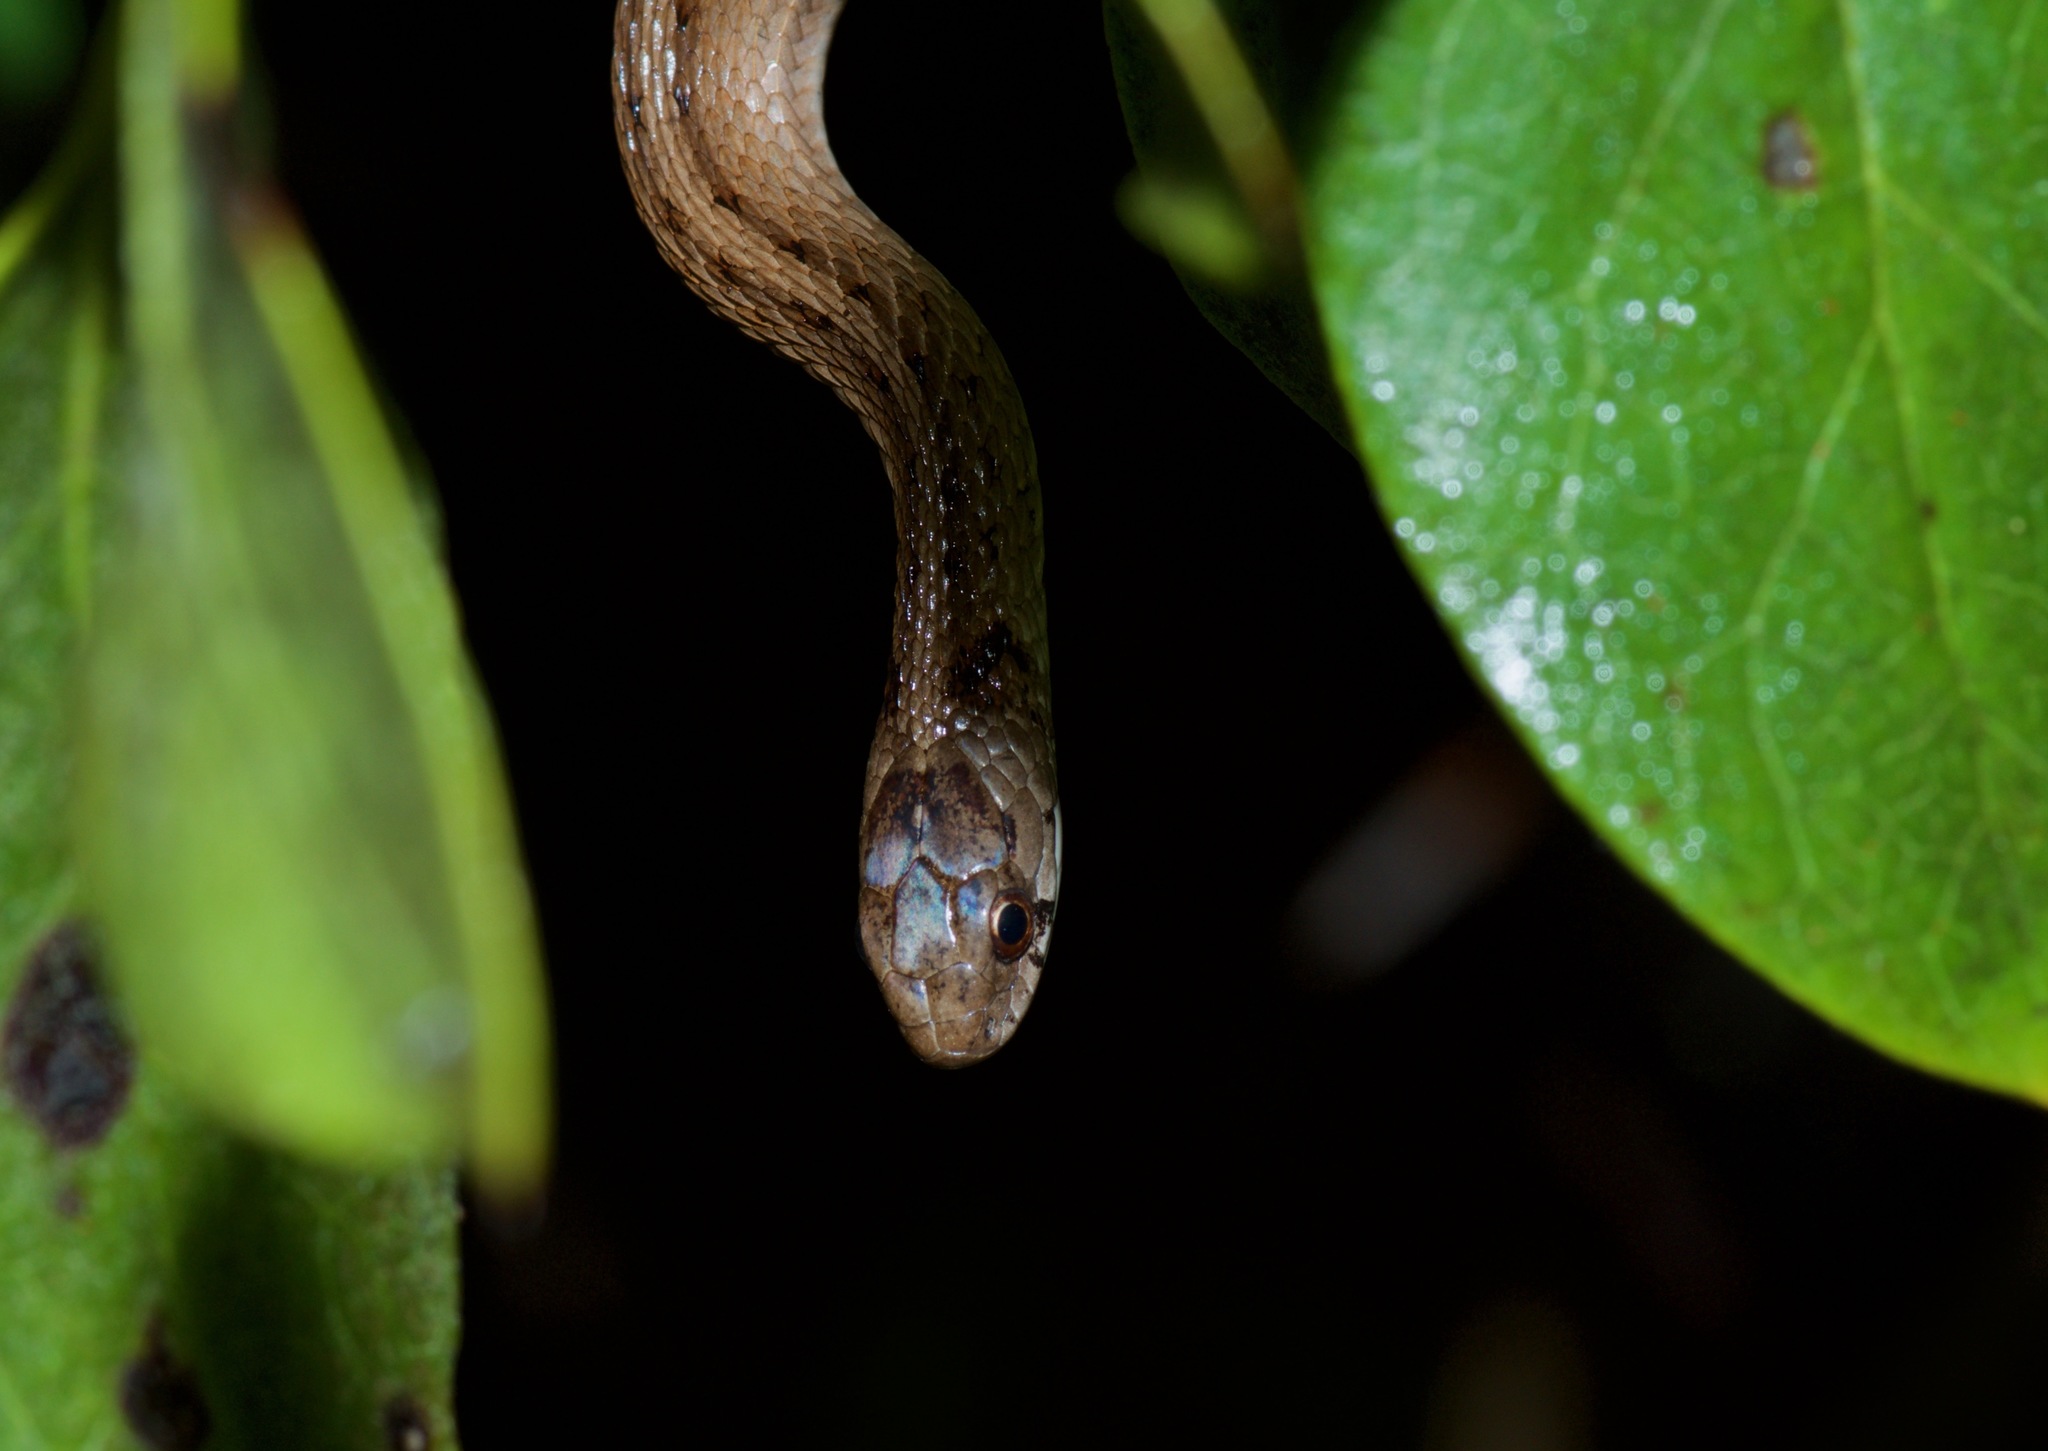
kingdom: Animalia
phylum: Chordata
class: Squamata
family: Colubridae
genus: Storeria
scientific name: Storeria dekayi
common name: (dekay’s) brown snake
